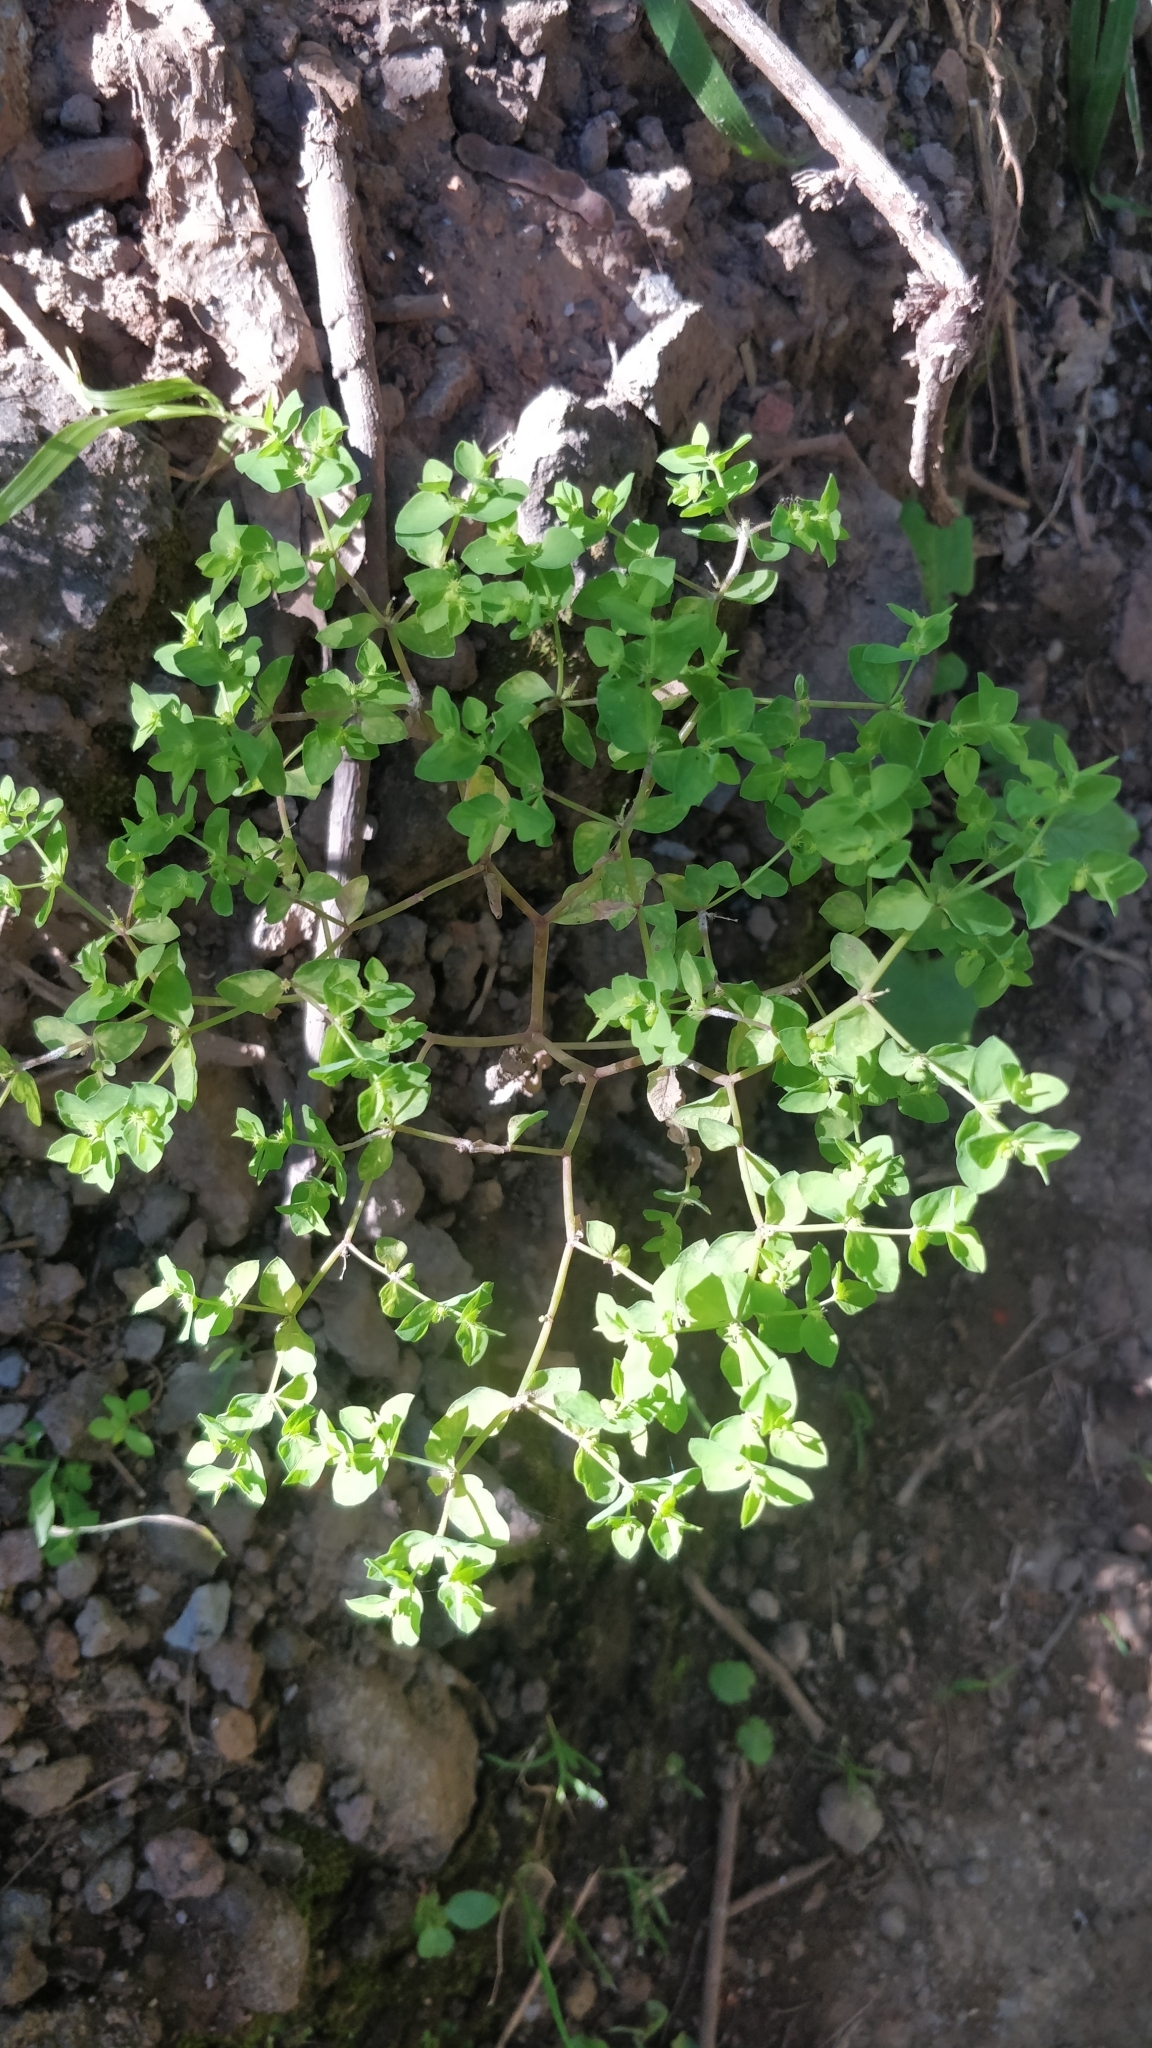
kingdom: Plantae
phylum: Tracheophyta
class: Magnoliopsida
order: Malpighiales
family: Euphorbiaceae
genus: Euphorbia
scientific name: Euphorbia peplus
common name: Petty spurge
